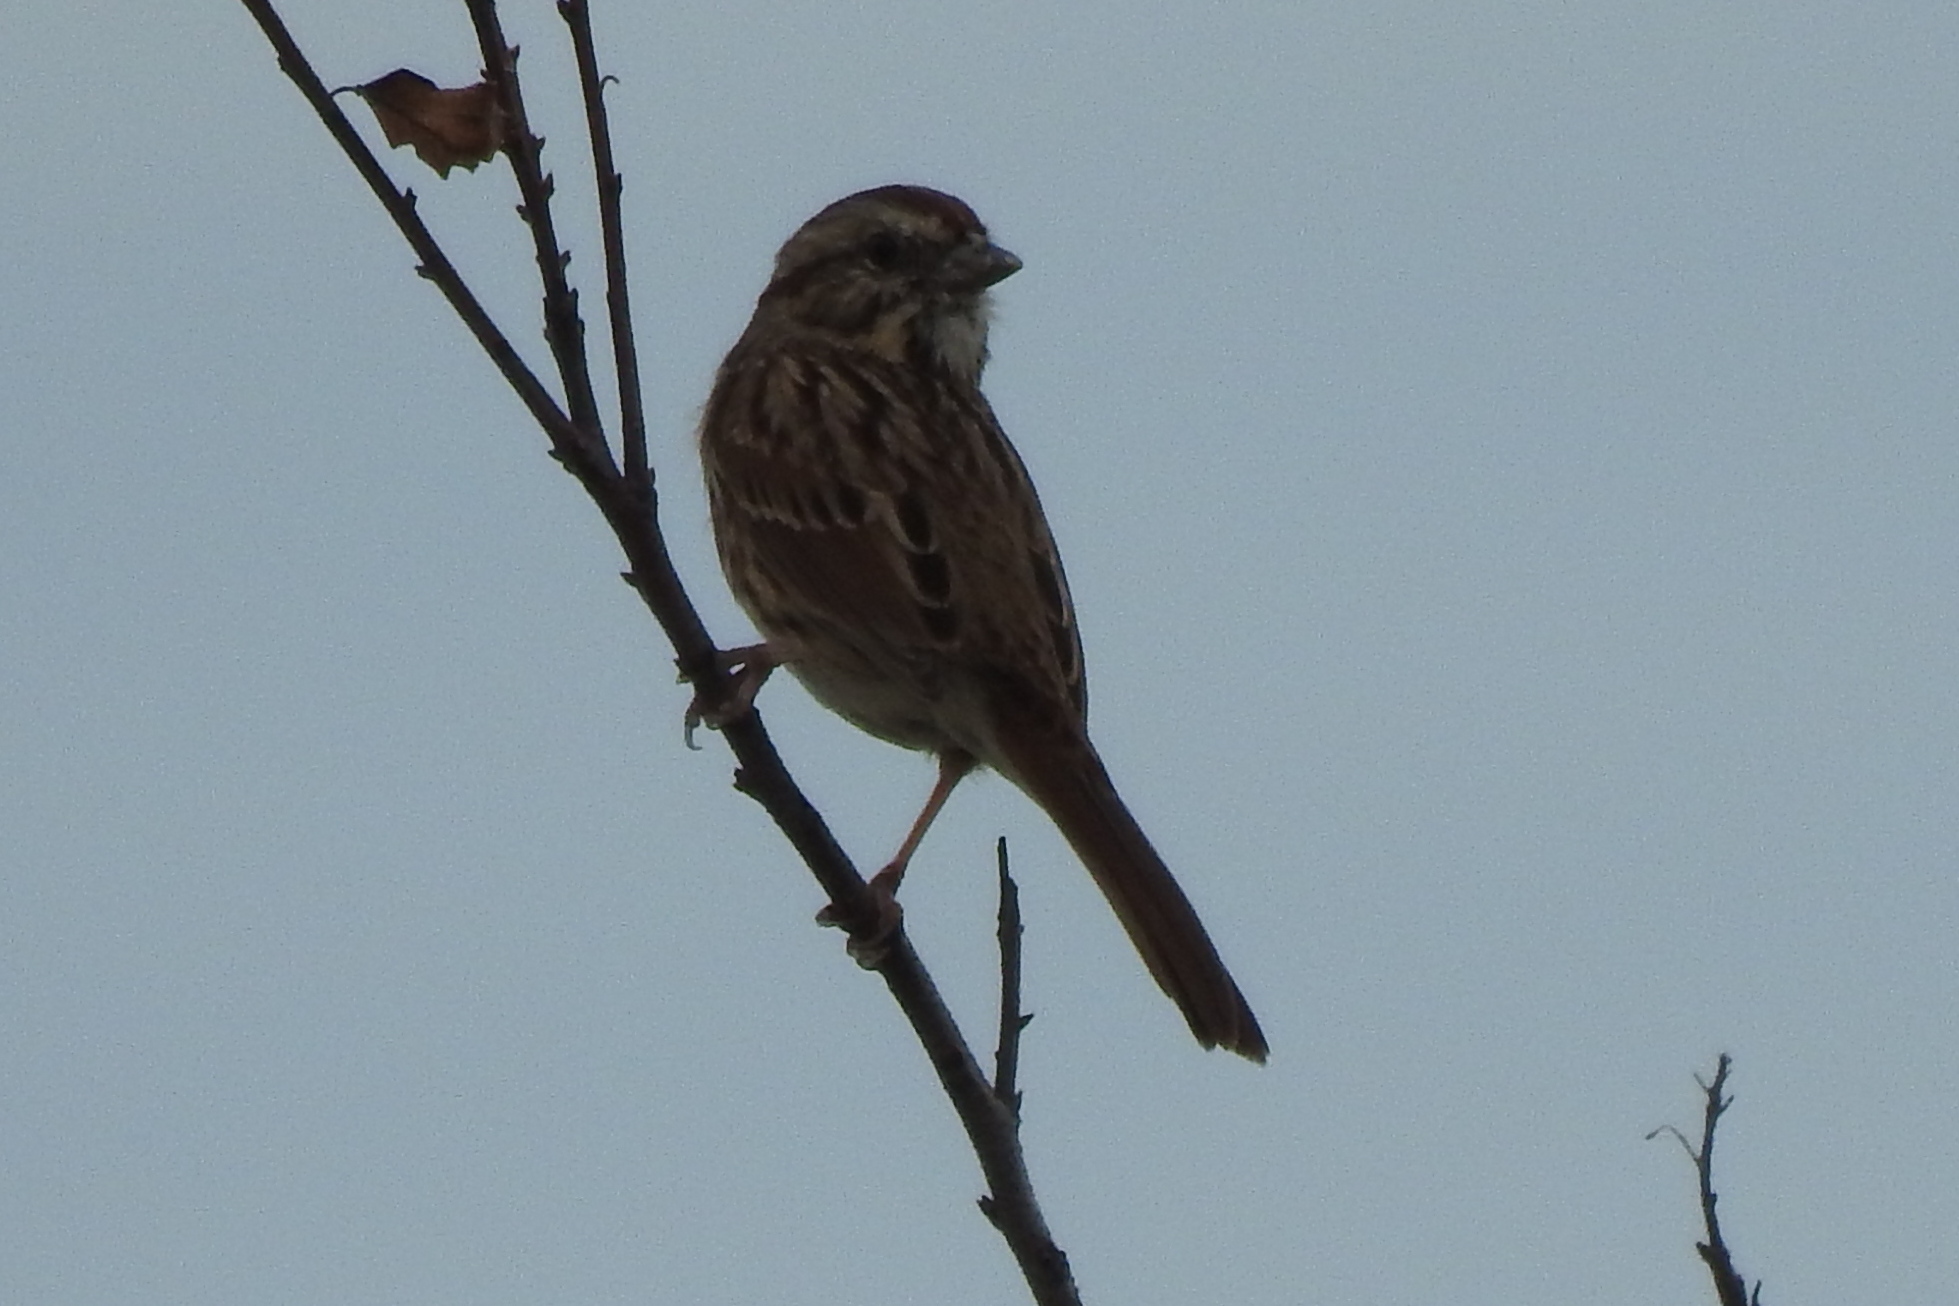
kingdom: Animalia
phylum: Chordata
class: Aves
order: Passeriformes
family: Passerellidae
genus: Melospiza
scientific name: Melospiza melodia
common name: Song sparrow
